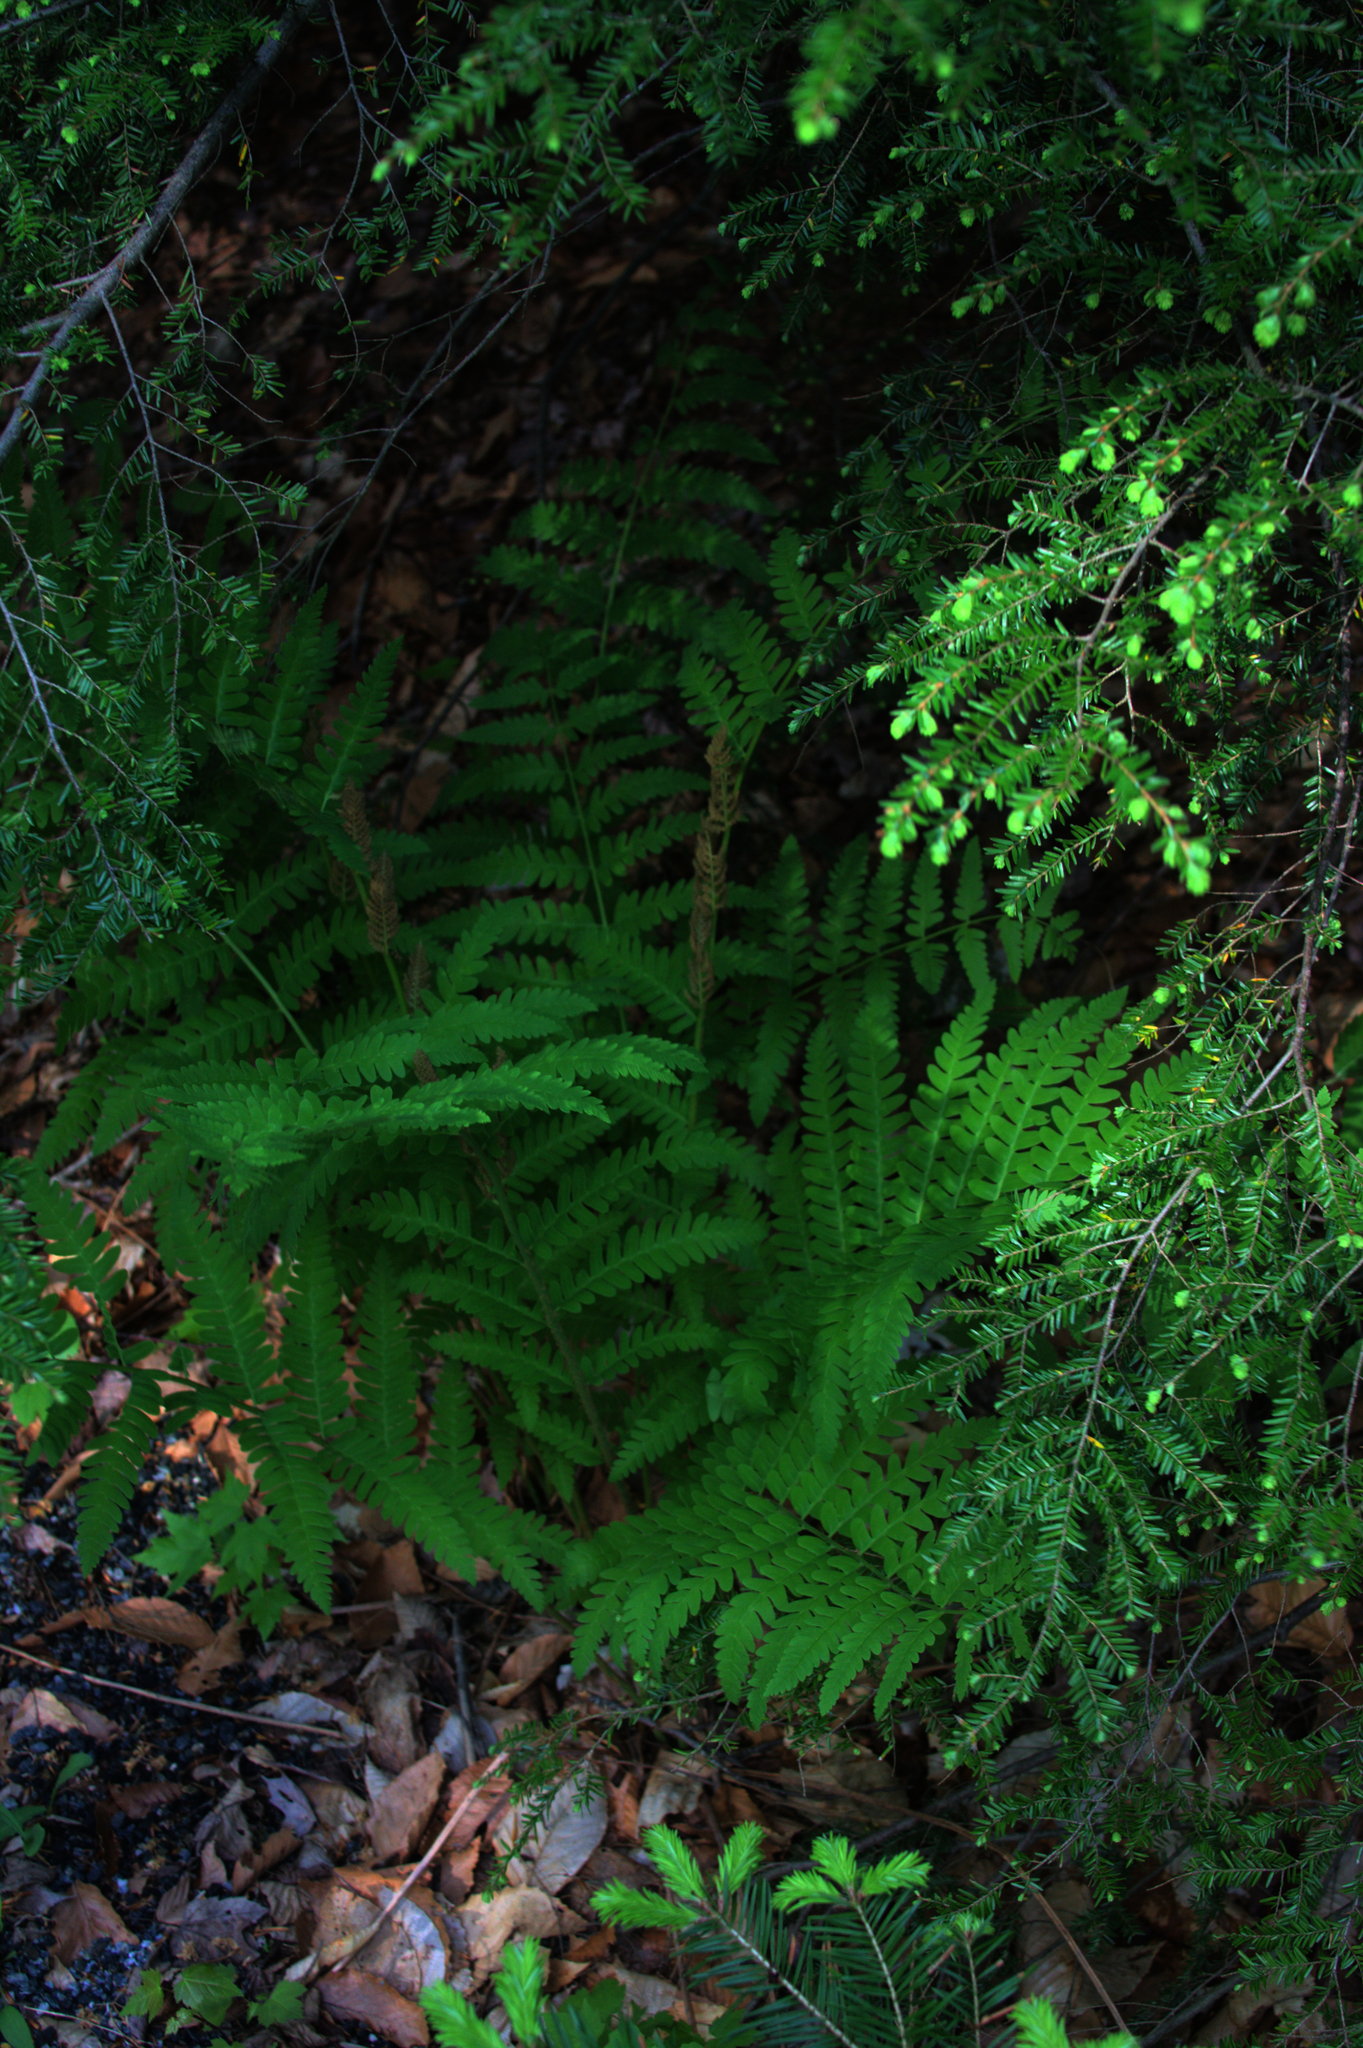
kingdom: Plantae
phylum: Tracheophyta
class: Polypodiopsida
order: Osmundales
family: Osmundaceae
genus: Claytosmunda
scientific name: Claytosmunda claytoniana
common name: Clayton's fern
